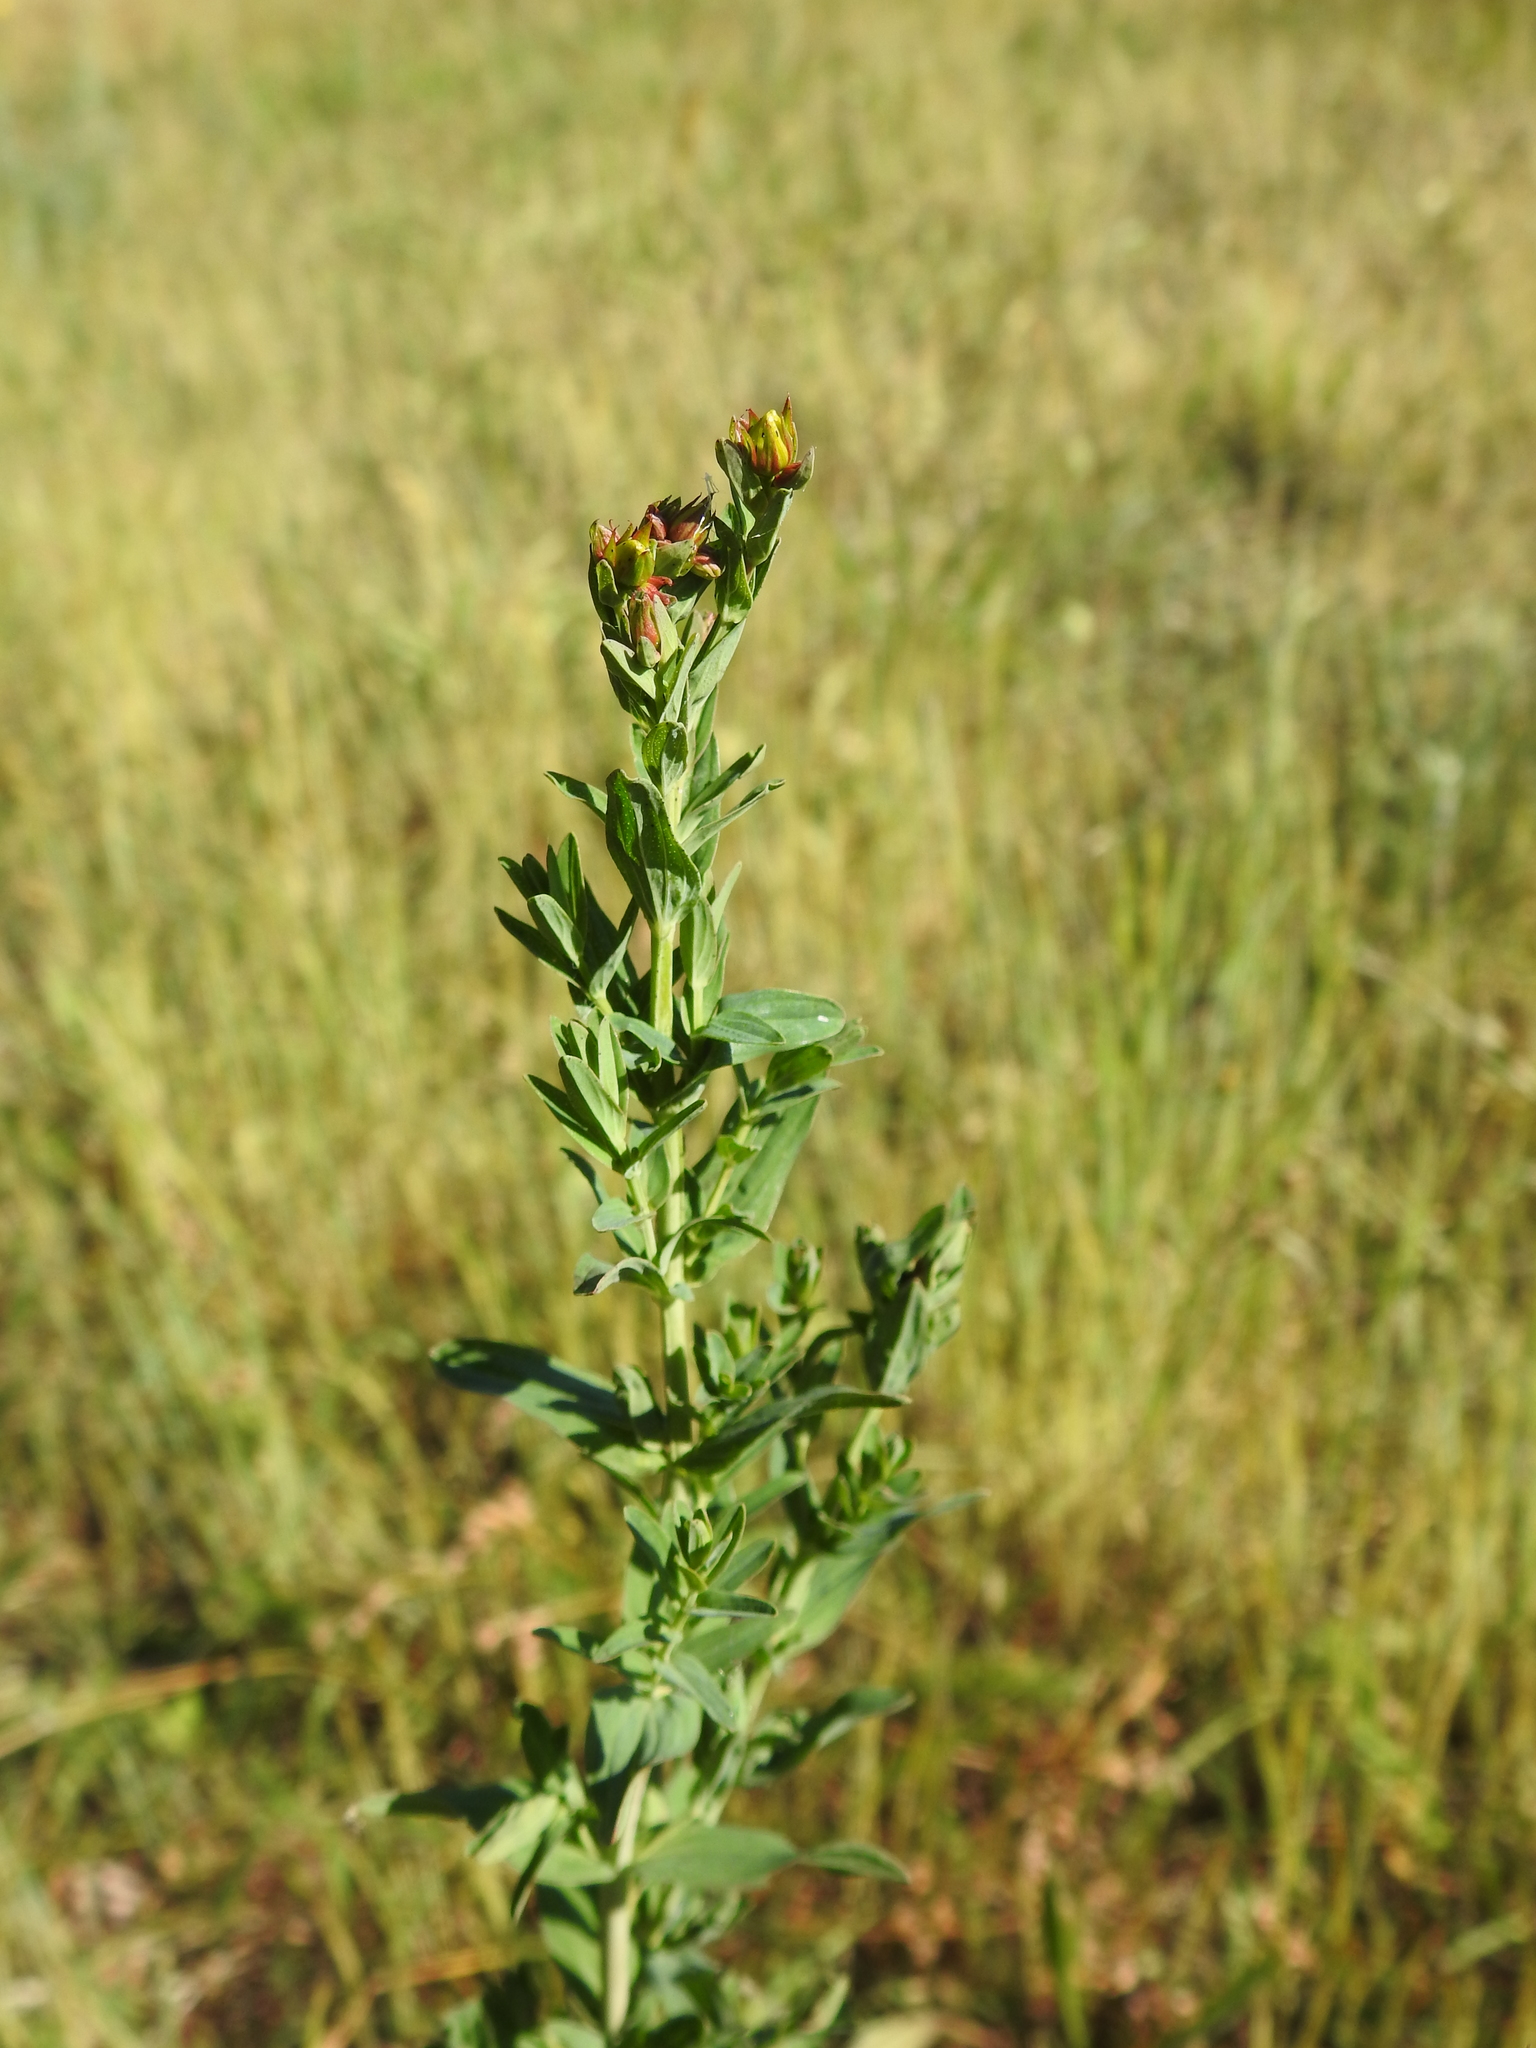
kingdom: Plantae
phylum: Tracheophyta
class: Magnoliopsida
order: Malpighiales
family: Hypericaceae
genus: Hypericum
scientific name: Hypericum perforatum
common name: Common st. johnswort
